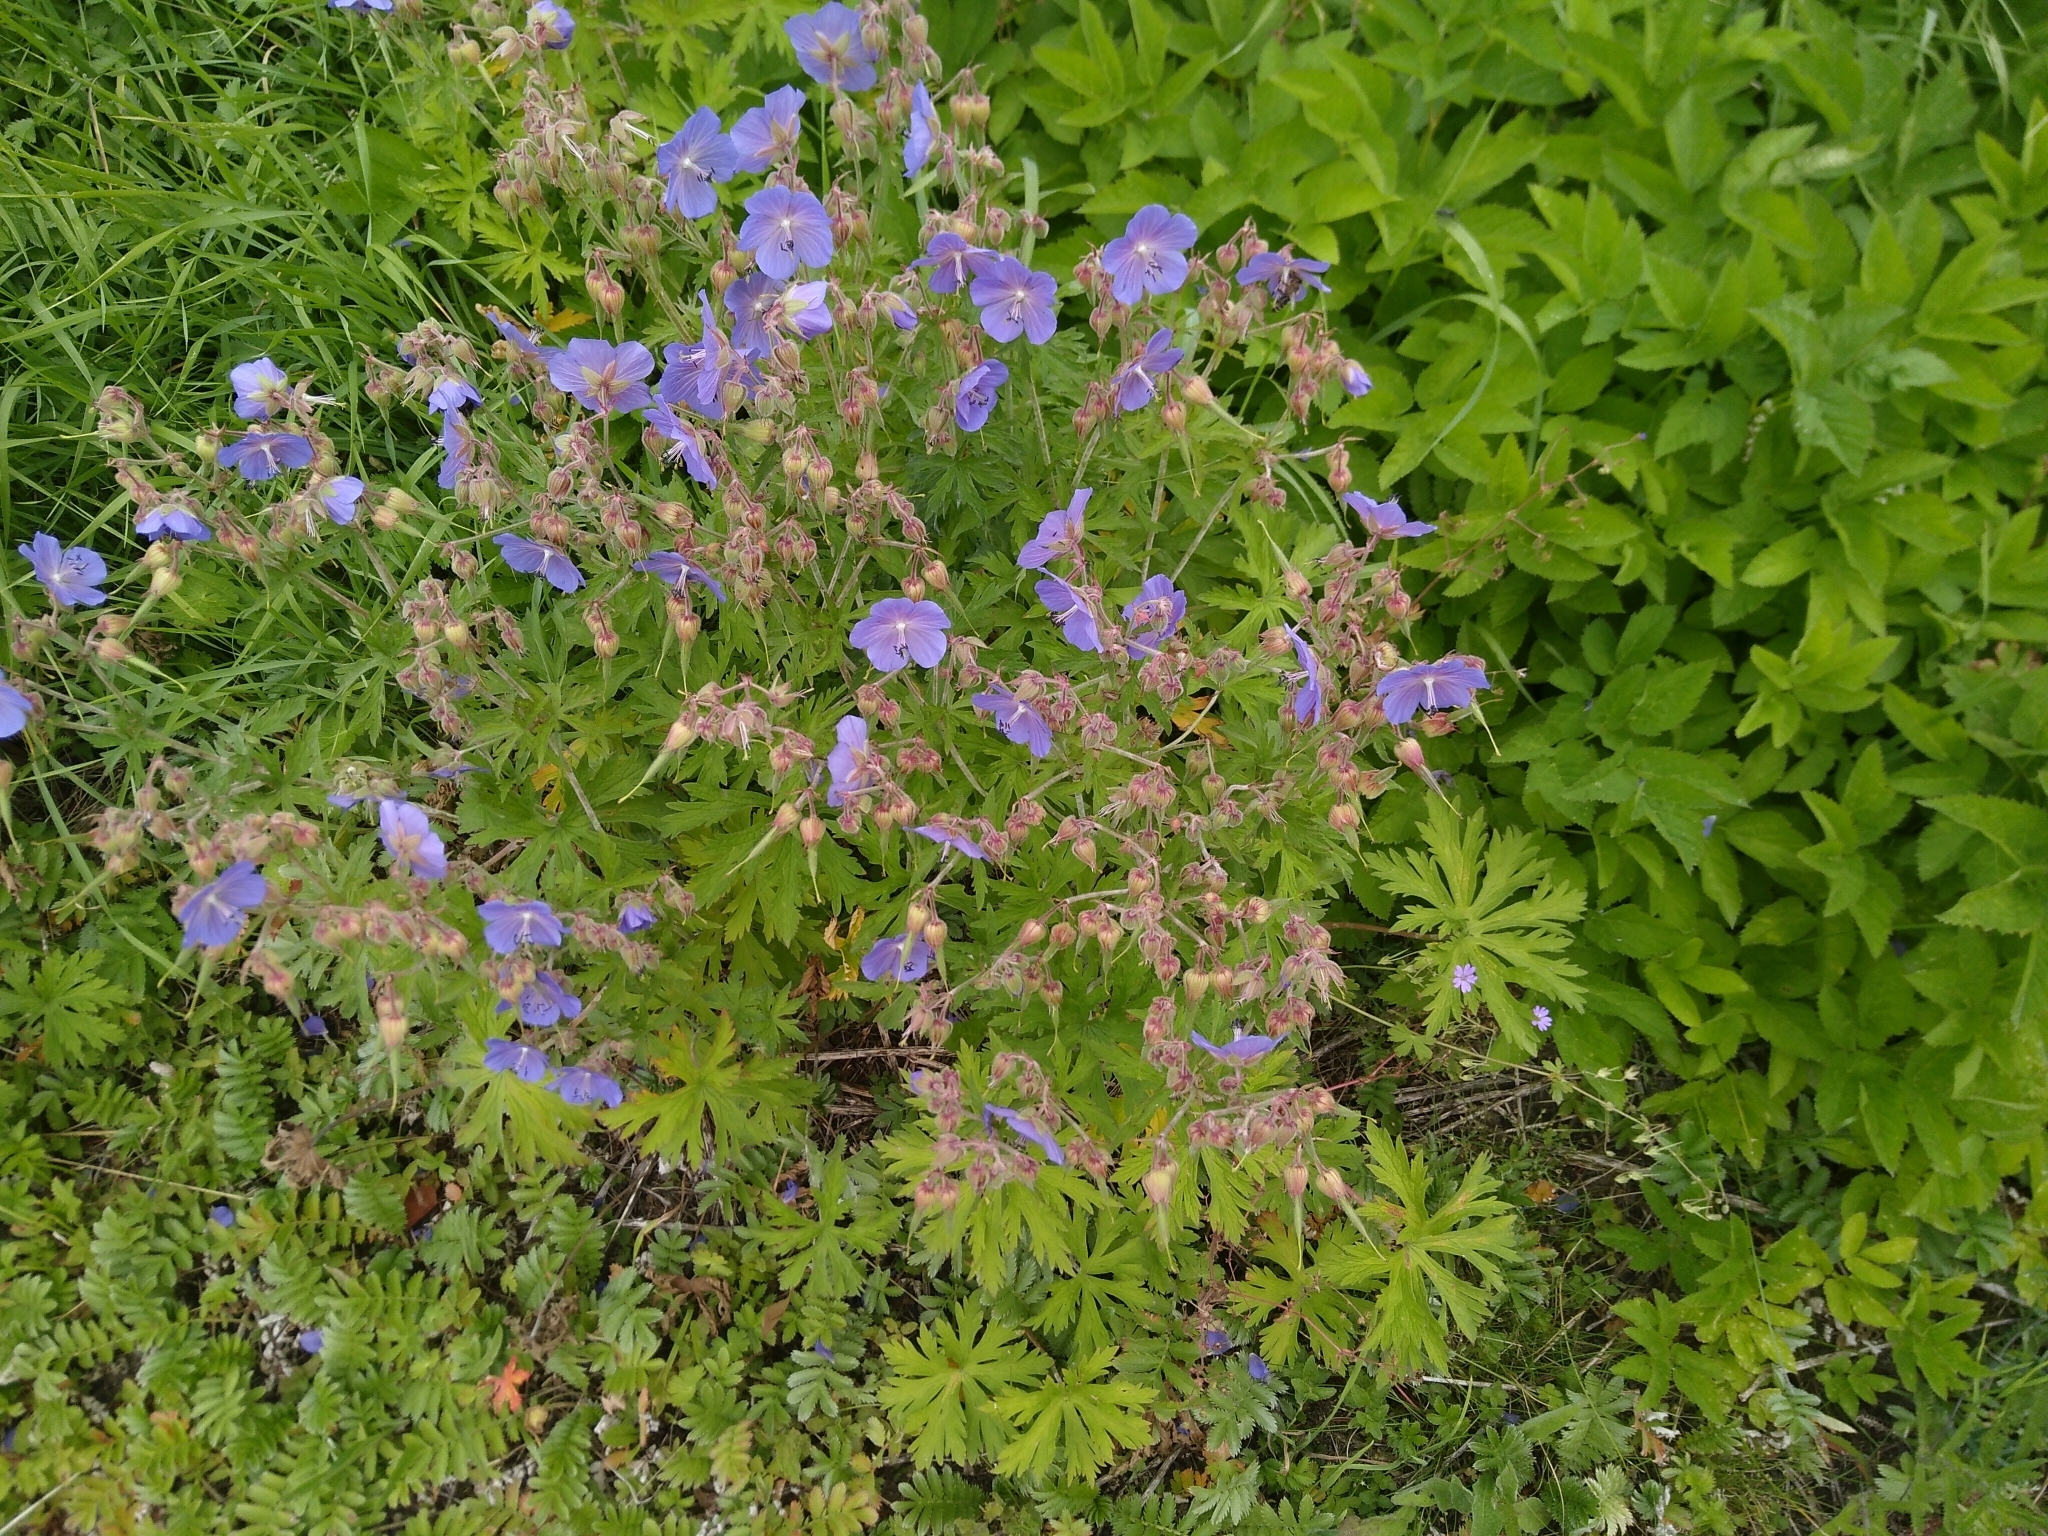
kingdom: Plantae
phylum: Tracheophyta
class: Magnoliopsida
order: Geraniales
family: Geraniaceae
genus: Geranium
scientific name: Geranium pratense
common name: Meadow crane's-bill
